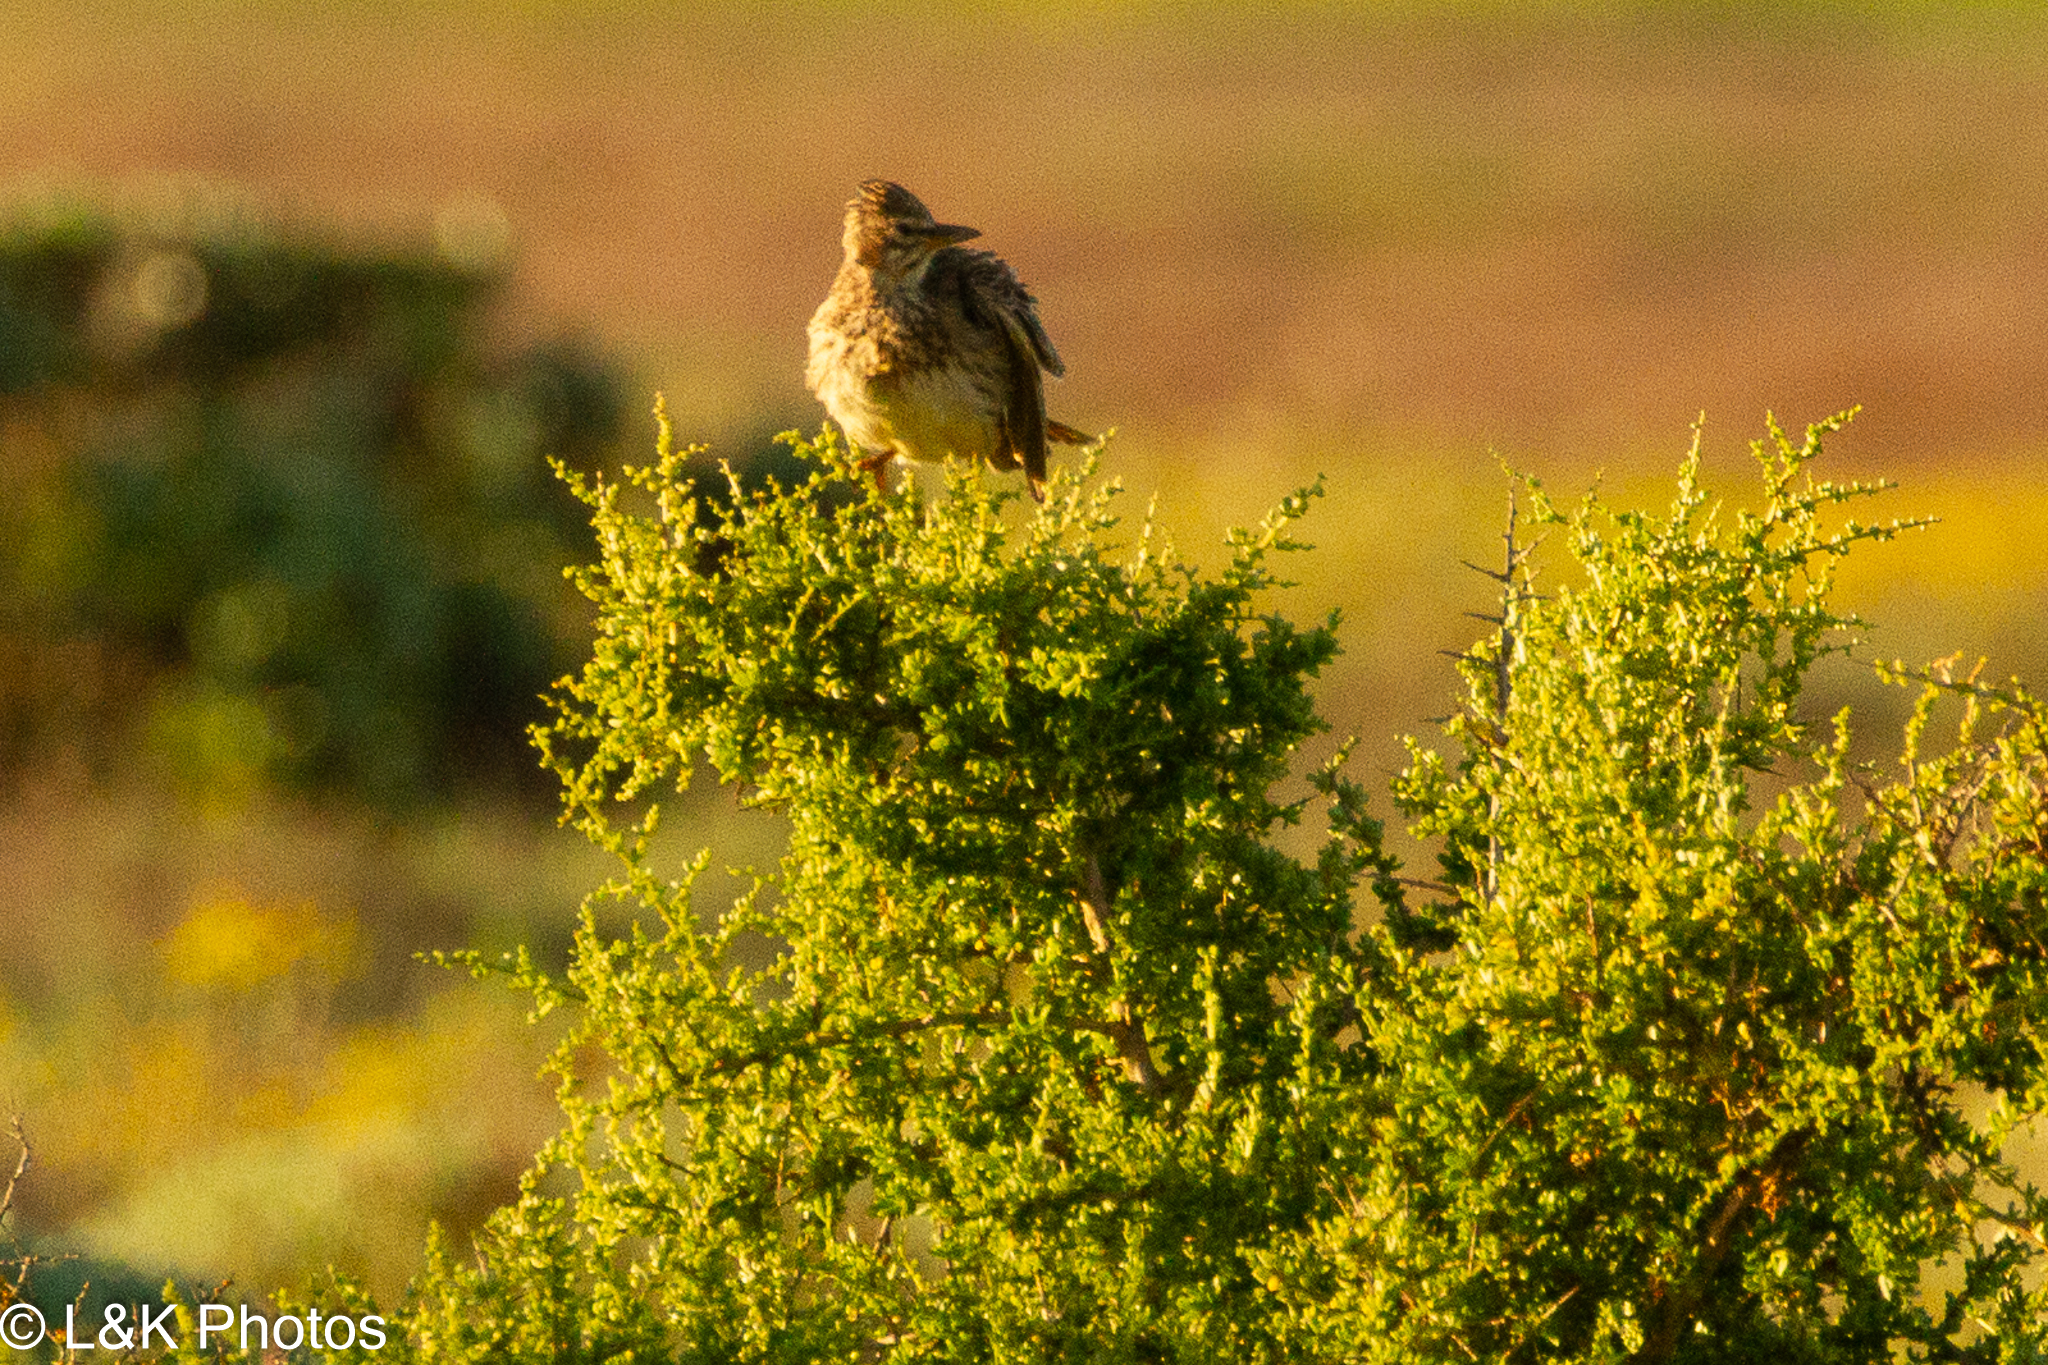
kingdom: Animalia
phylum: Chordata
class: Aves
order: Passeriformes
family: Alaudidae
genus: Galerida
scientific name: Galerida magnirostris
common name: Large-billed lark
